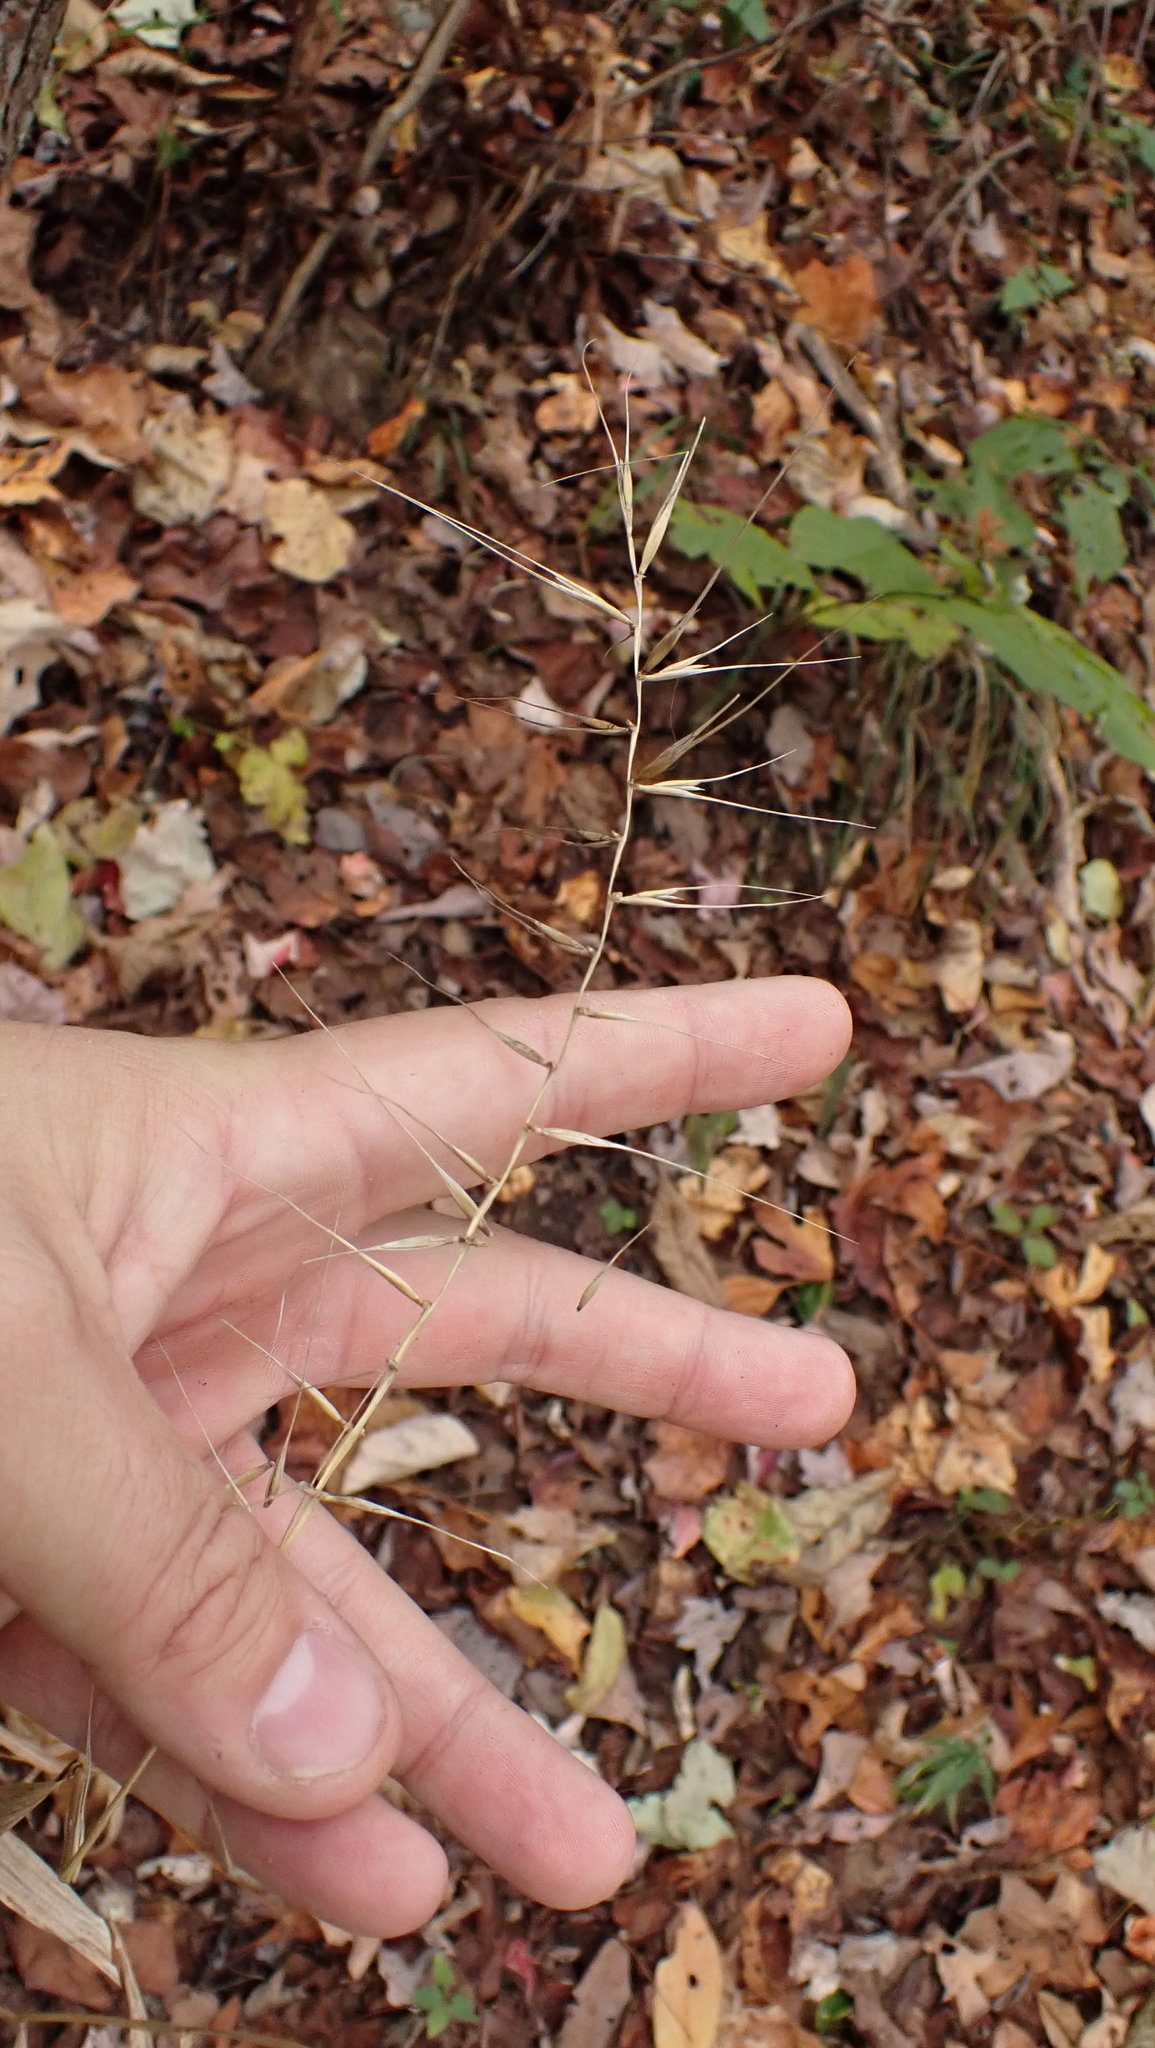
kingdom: Plantae
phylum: Tracheophyta
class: Liliopsida
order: Poales
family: Poaceae
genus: Elymus
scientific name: Elymus hystrix
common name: Bottlebrush grass
